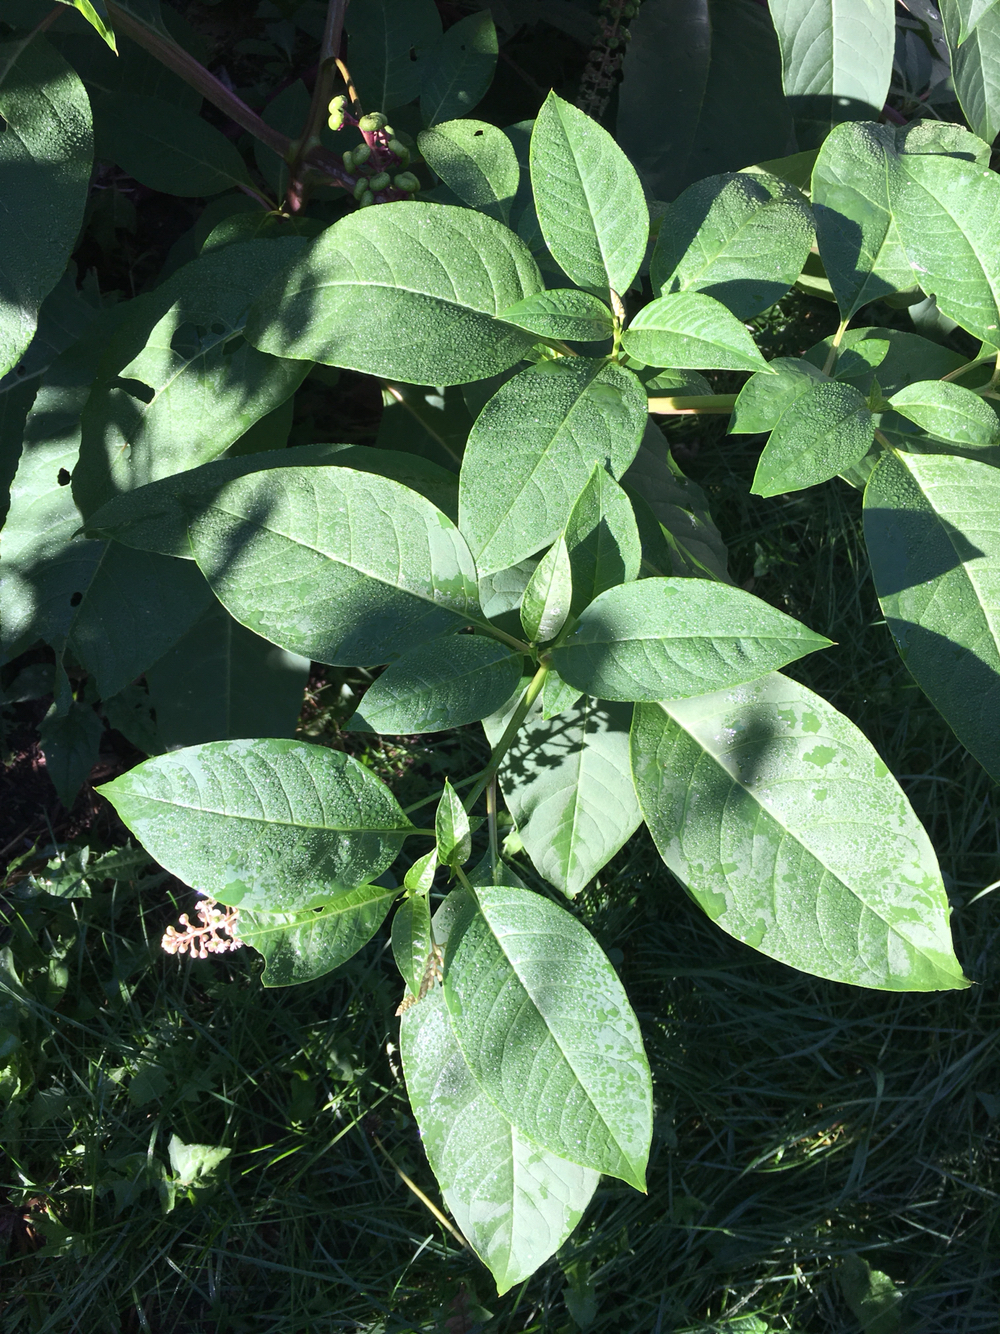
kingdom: Plantae
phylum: Tracheophyta
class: Magnoliopsida
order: Caryophyllales
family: Phytolaccaceae
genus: Phytolacca
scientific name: Phytolacca americana
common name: American pokeweed
